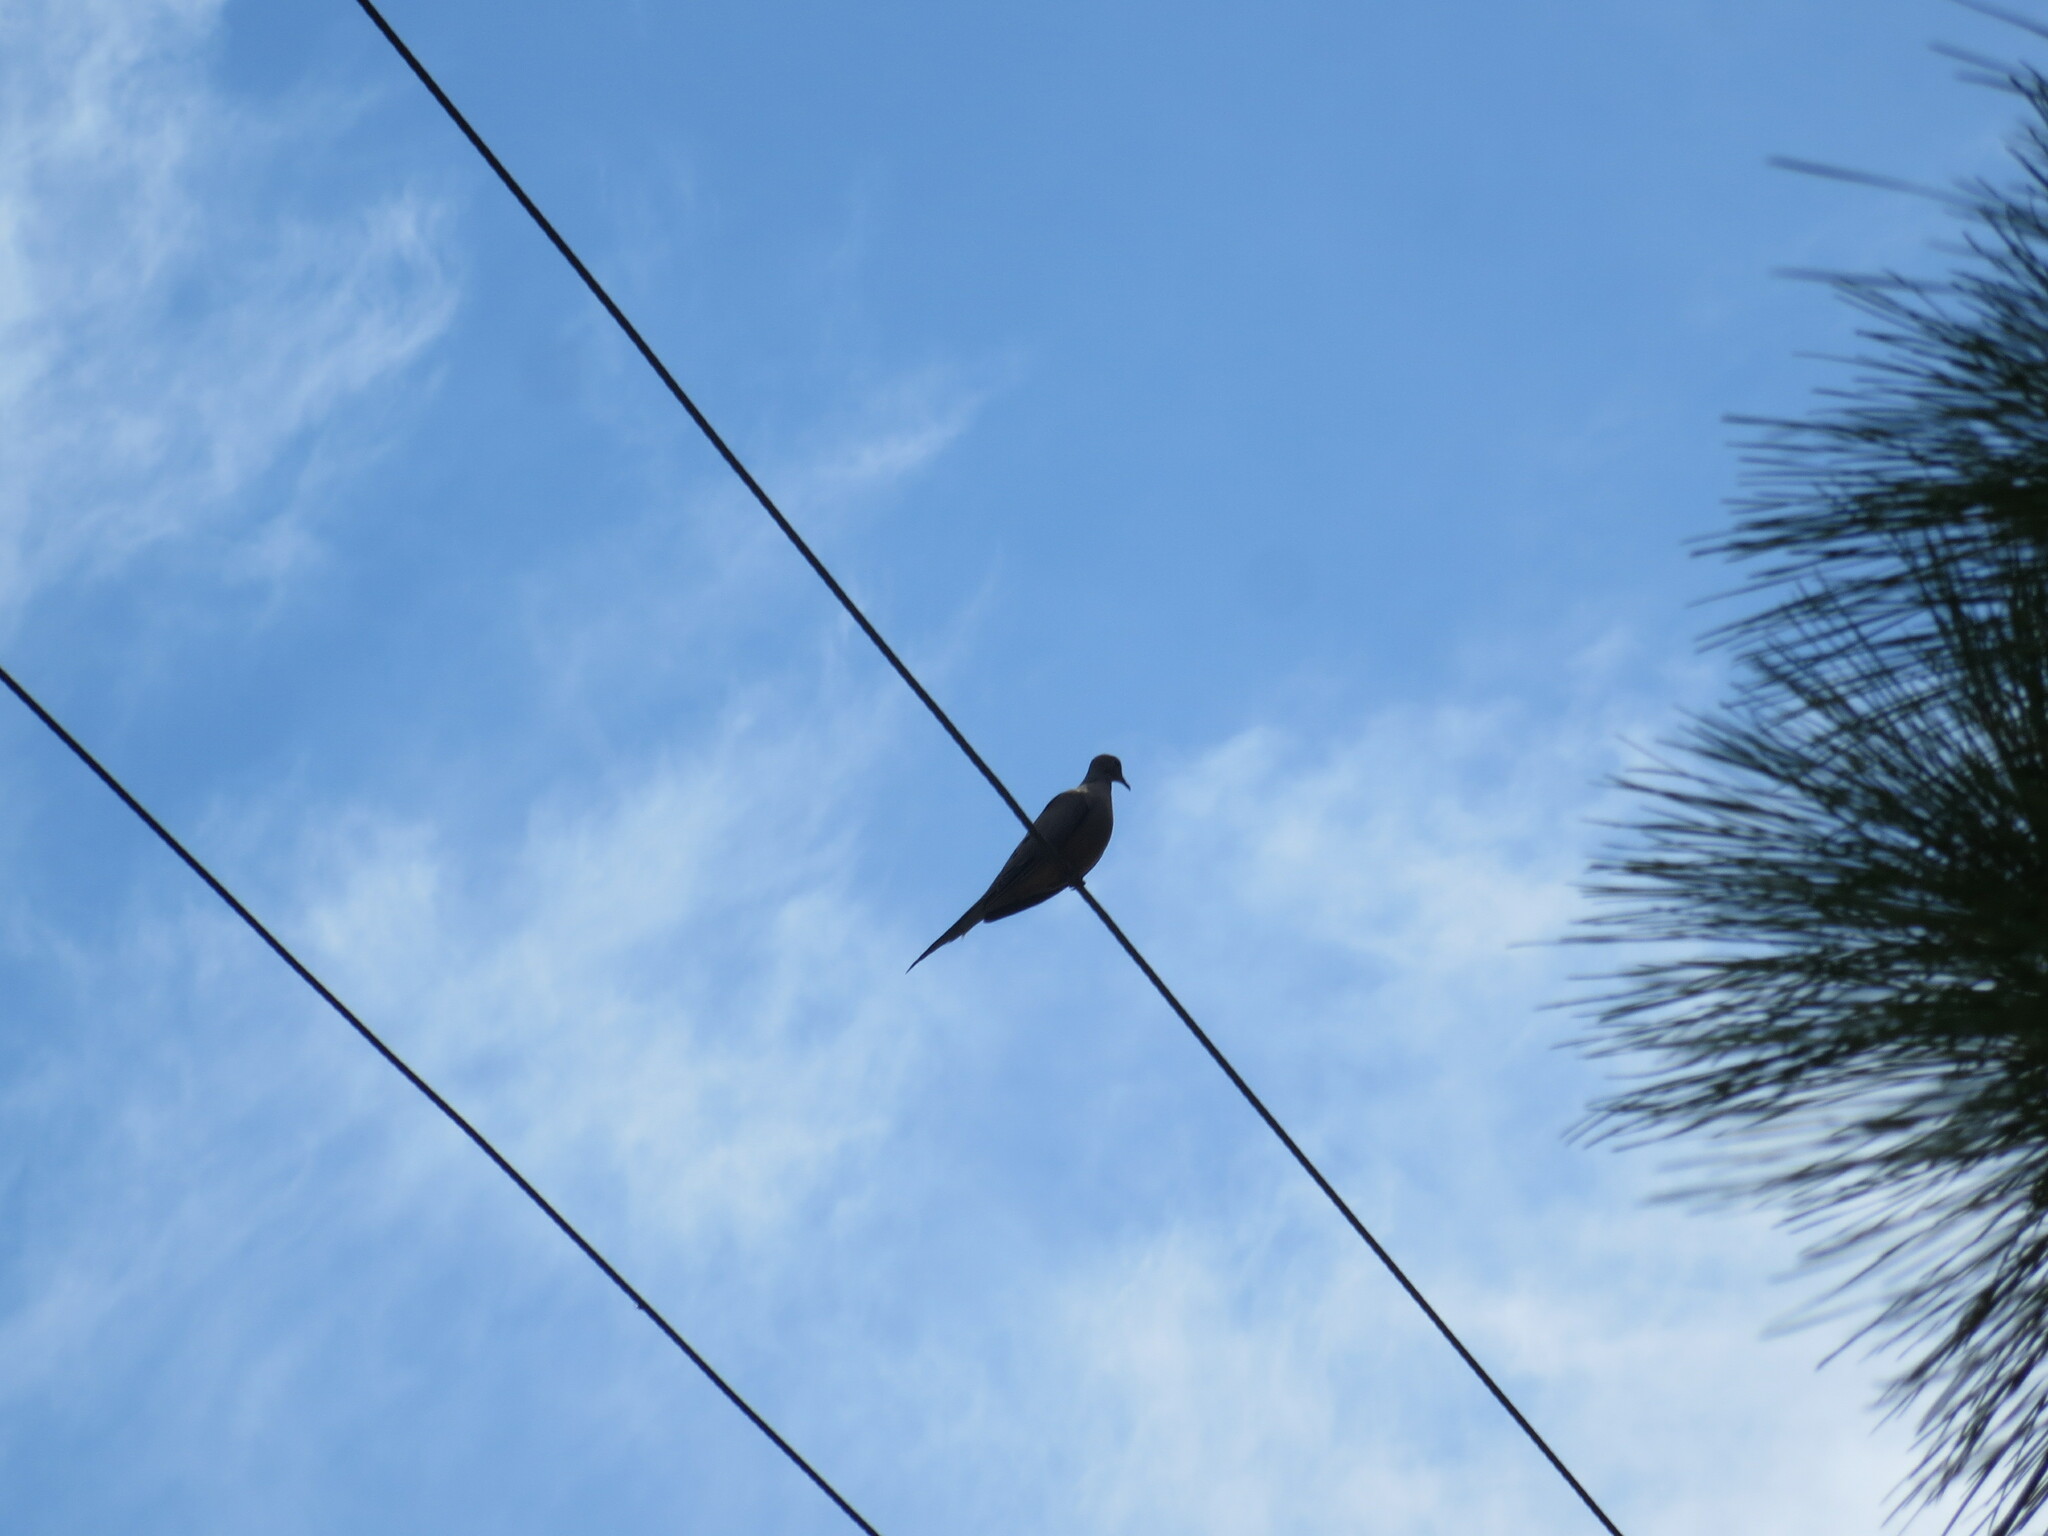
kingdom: Animalia
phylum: Chordata
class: Aves
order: Columbiformes
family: Columbidae
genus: Zenaida
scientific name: Zenaida macroura
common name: Mourning dove
